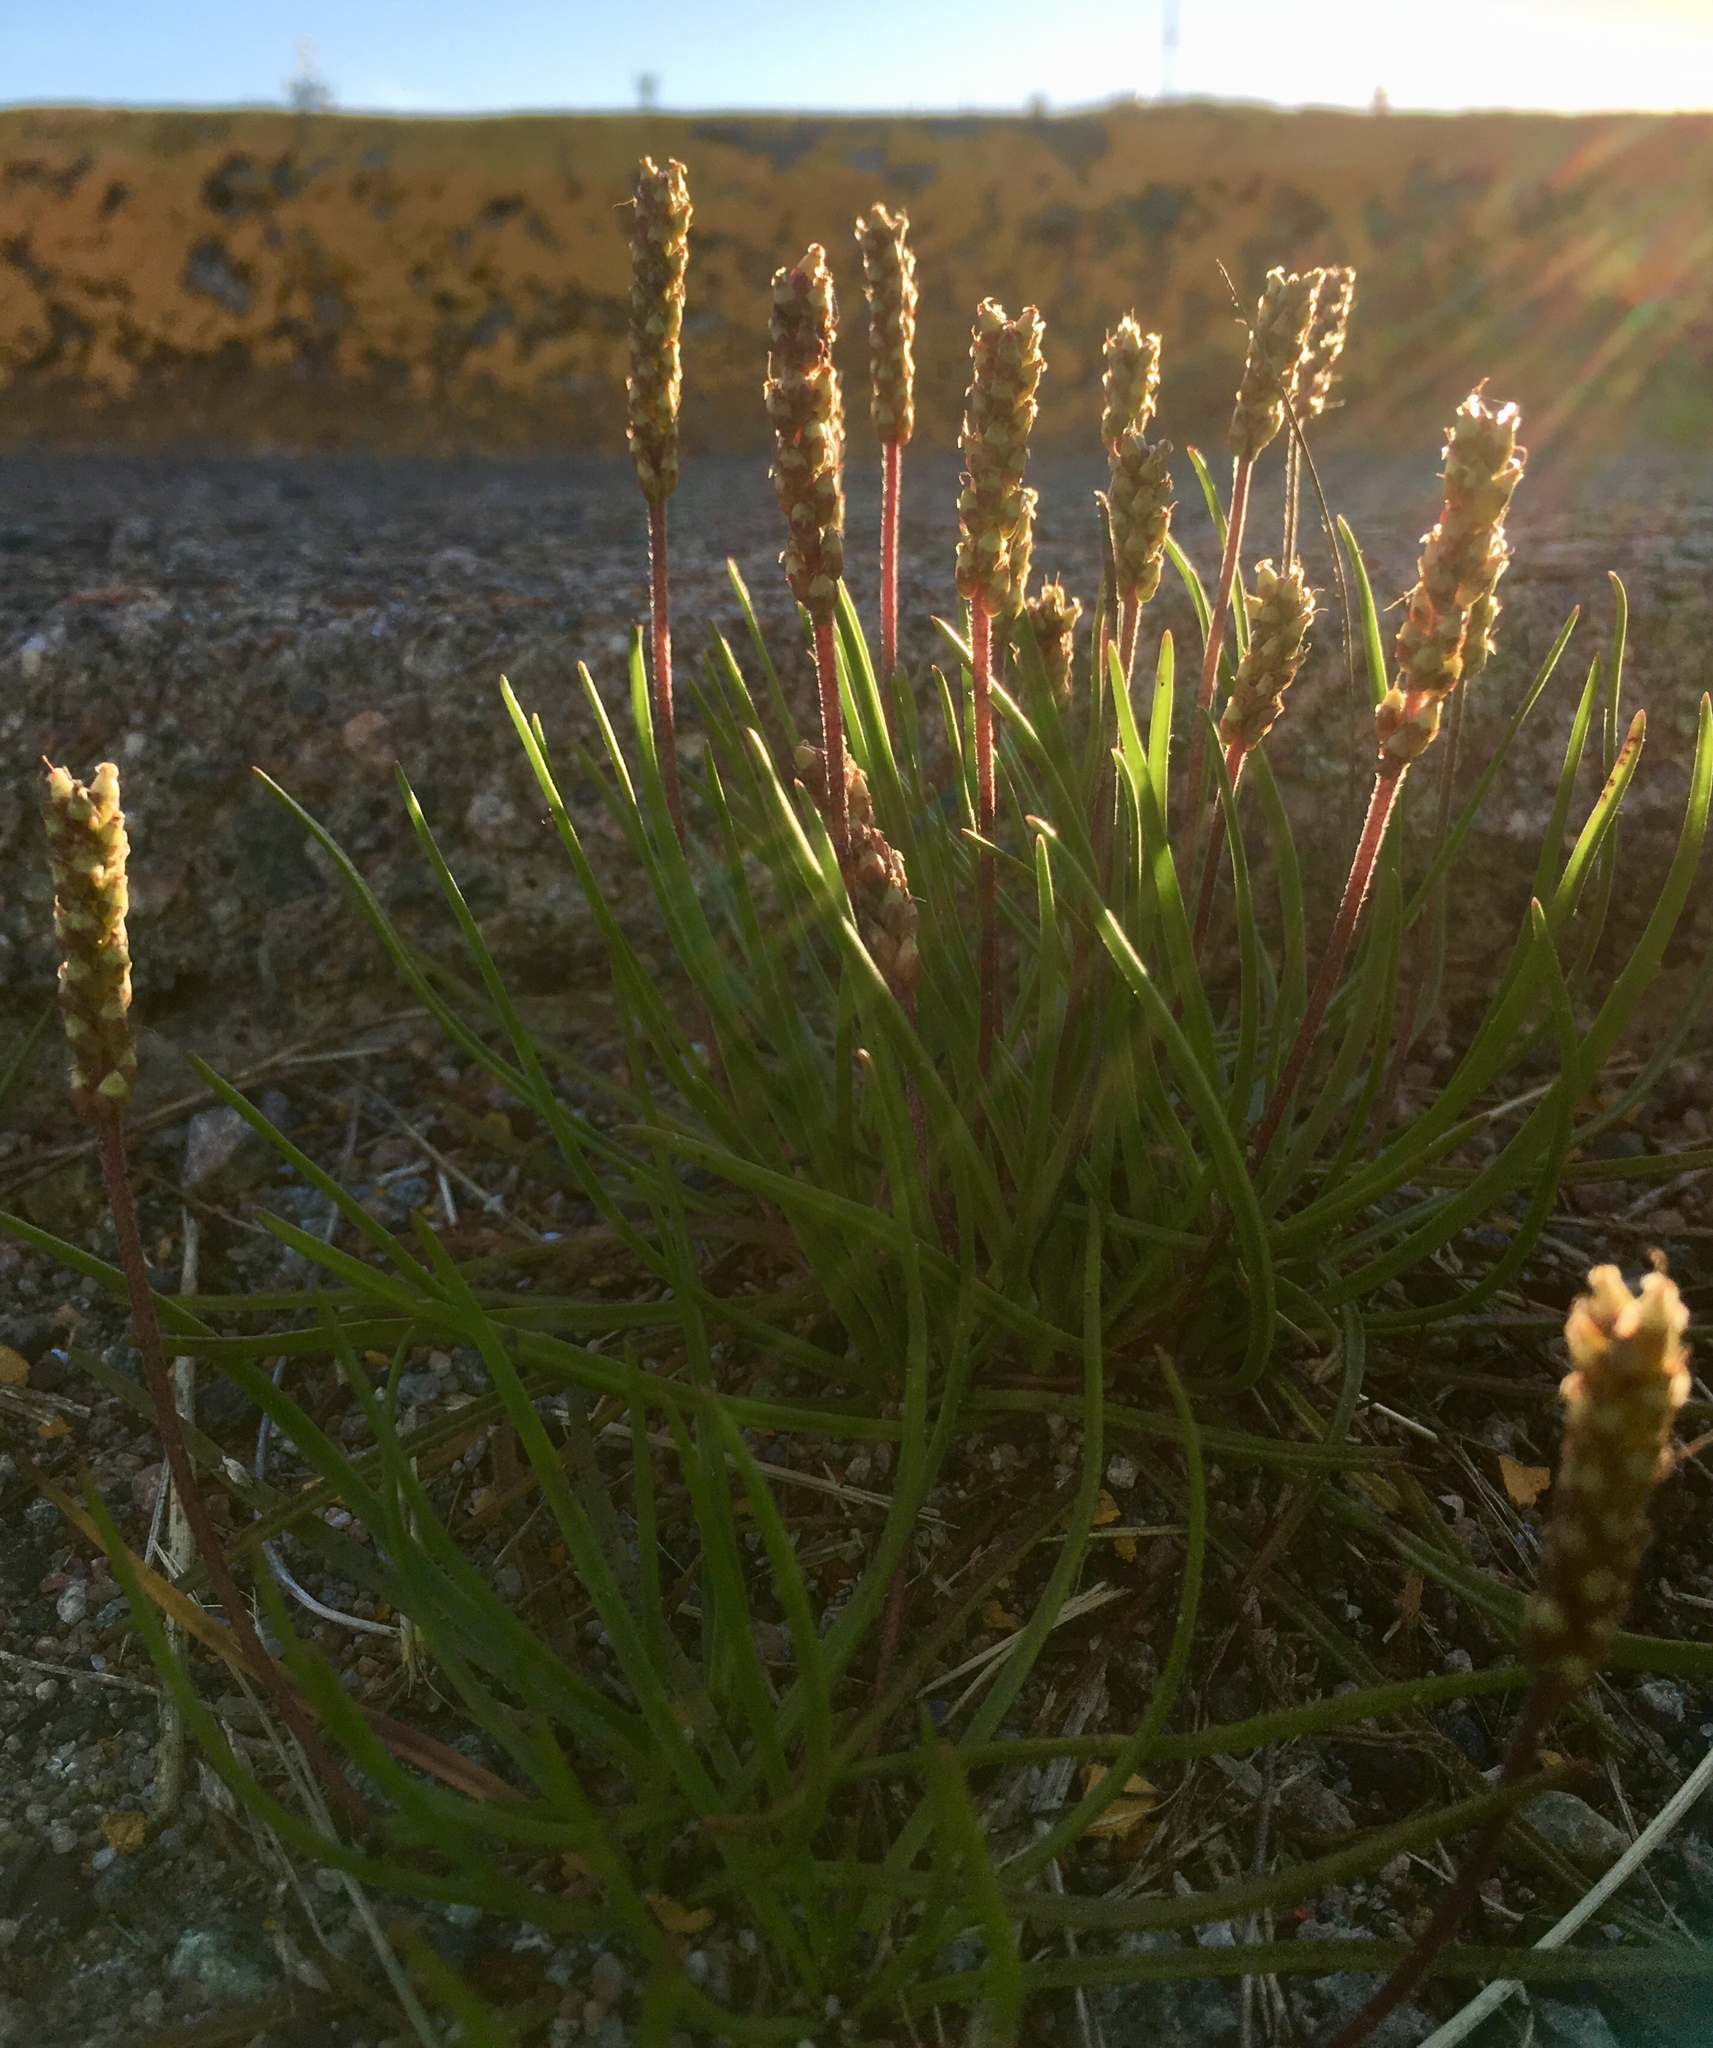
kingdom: Plantae
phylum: Tracheophyta
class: Magnoliopsida
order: Lamiales
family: Plantaginaceae
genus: Plantago
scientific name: Plantago maritima
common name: Sea plantain
